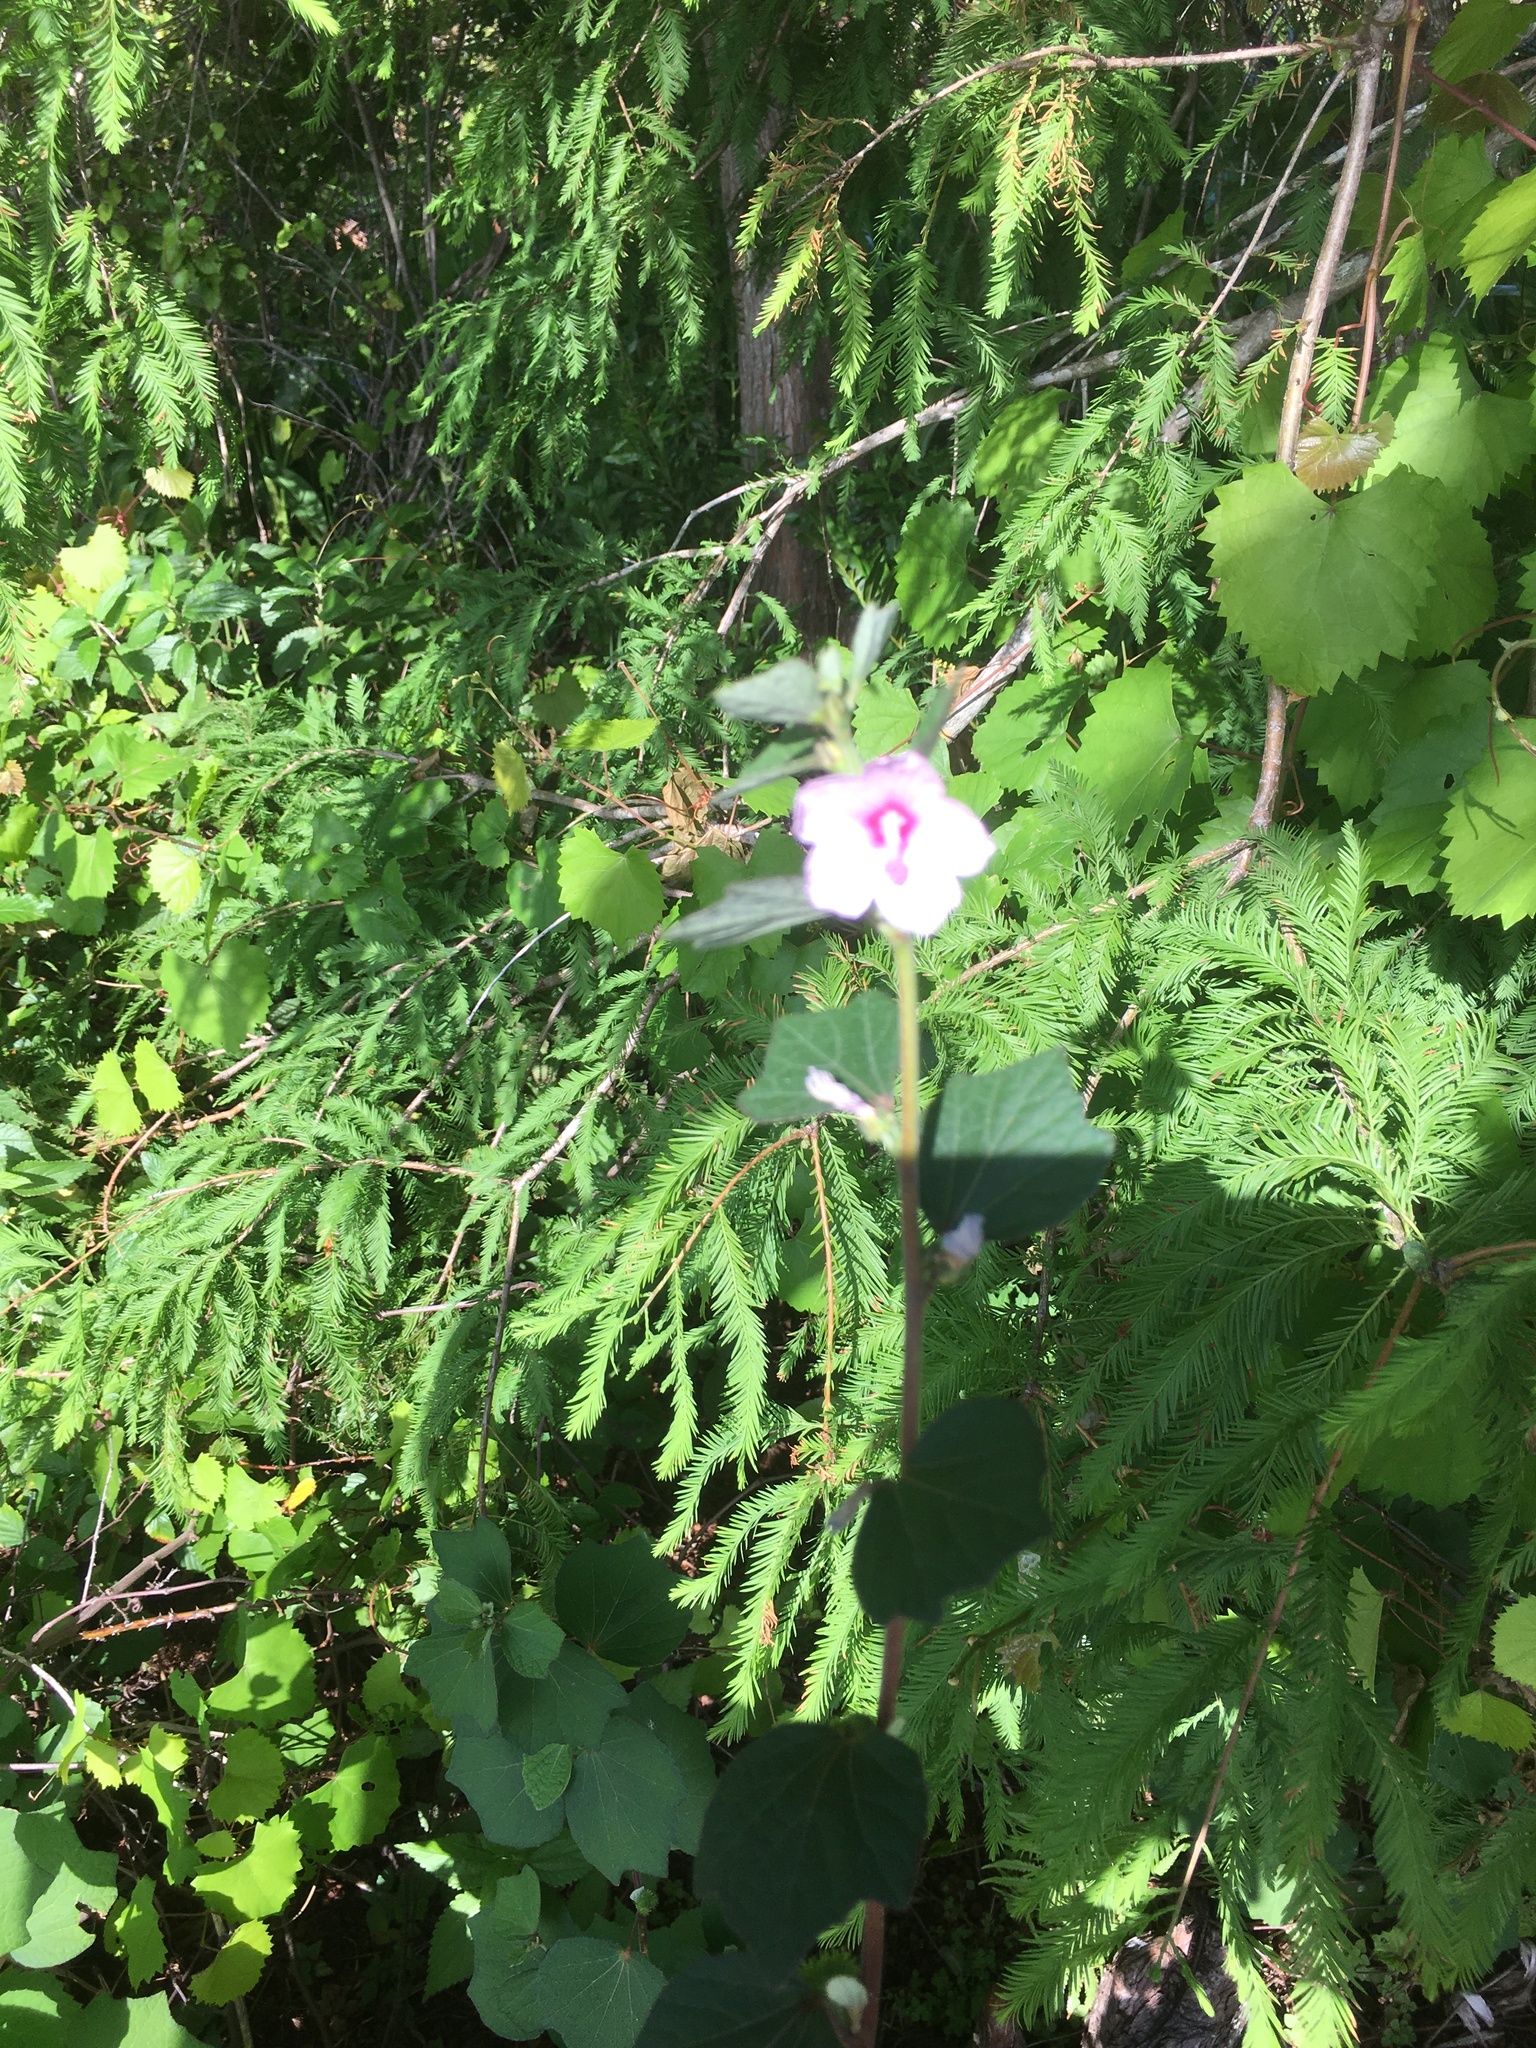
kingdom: Plantae
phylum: Tracheophyta
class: Magnoliopsida
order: Malvales
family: Malvaceae
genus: Urena
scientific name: Urena lobata
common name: Caesarweed
